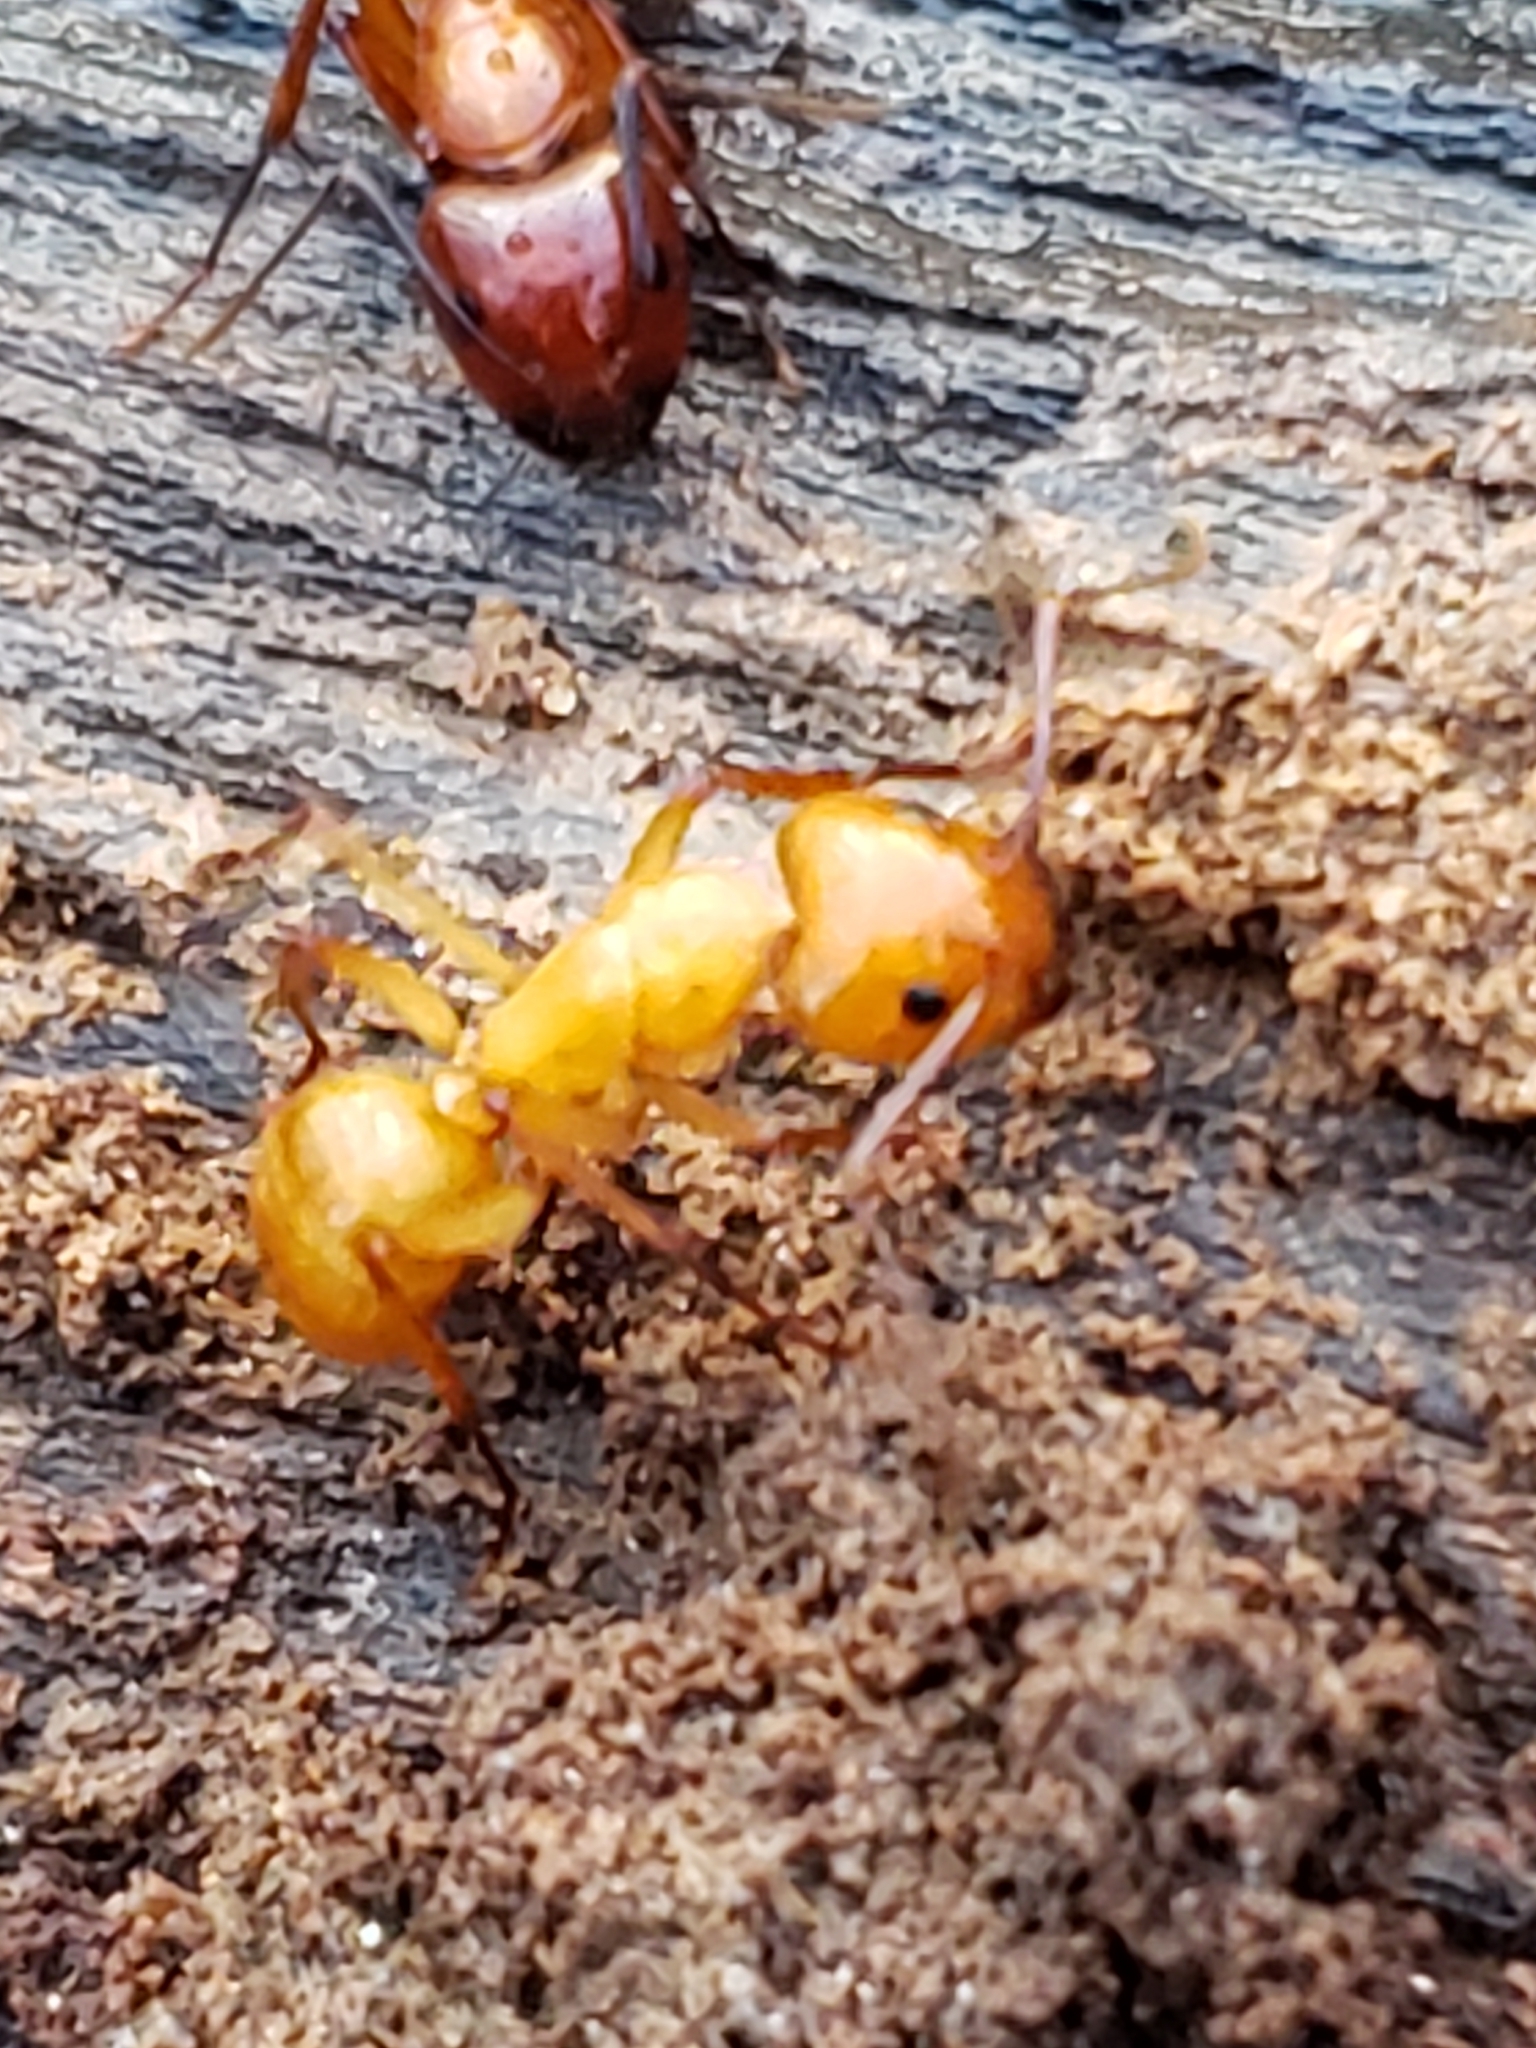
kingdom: Animalia
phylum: Arthropoda
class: Insecta
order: Hymenoptera
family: Formicidae
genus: Camponotus
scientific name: Camponotus castaneus
